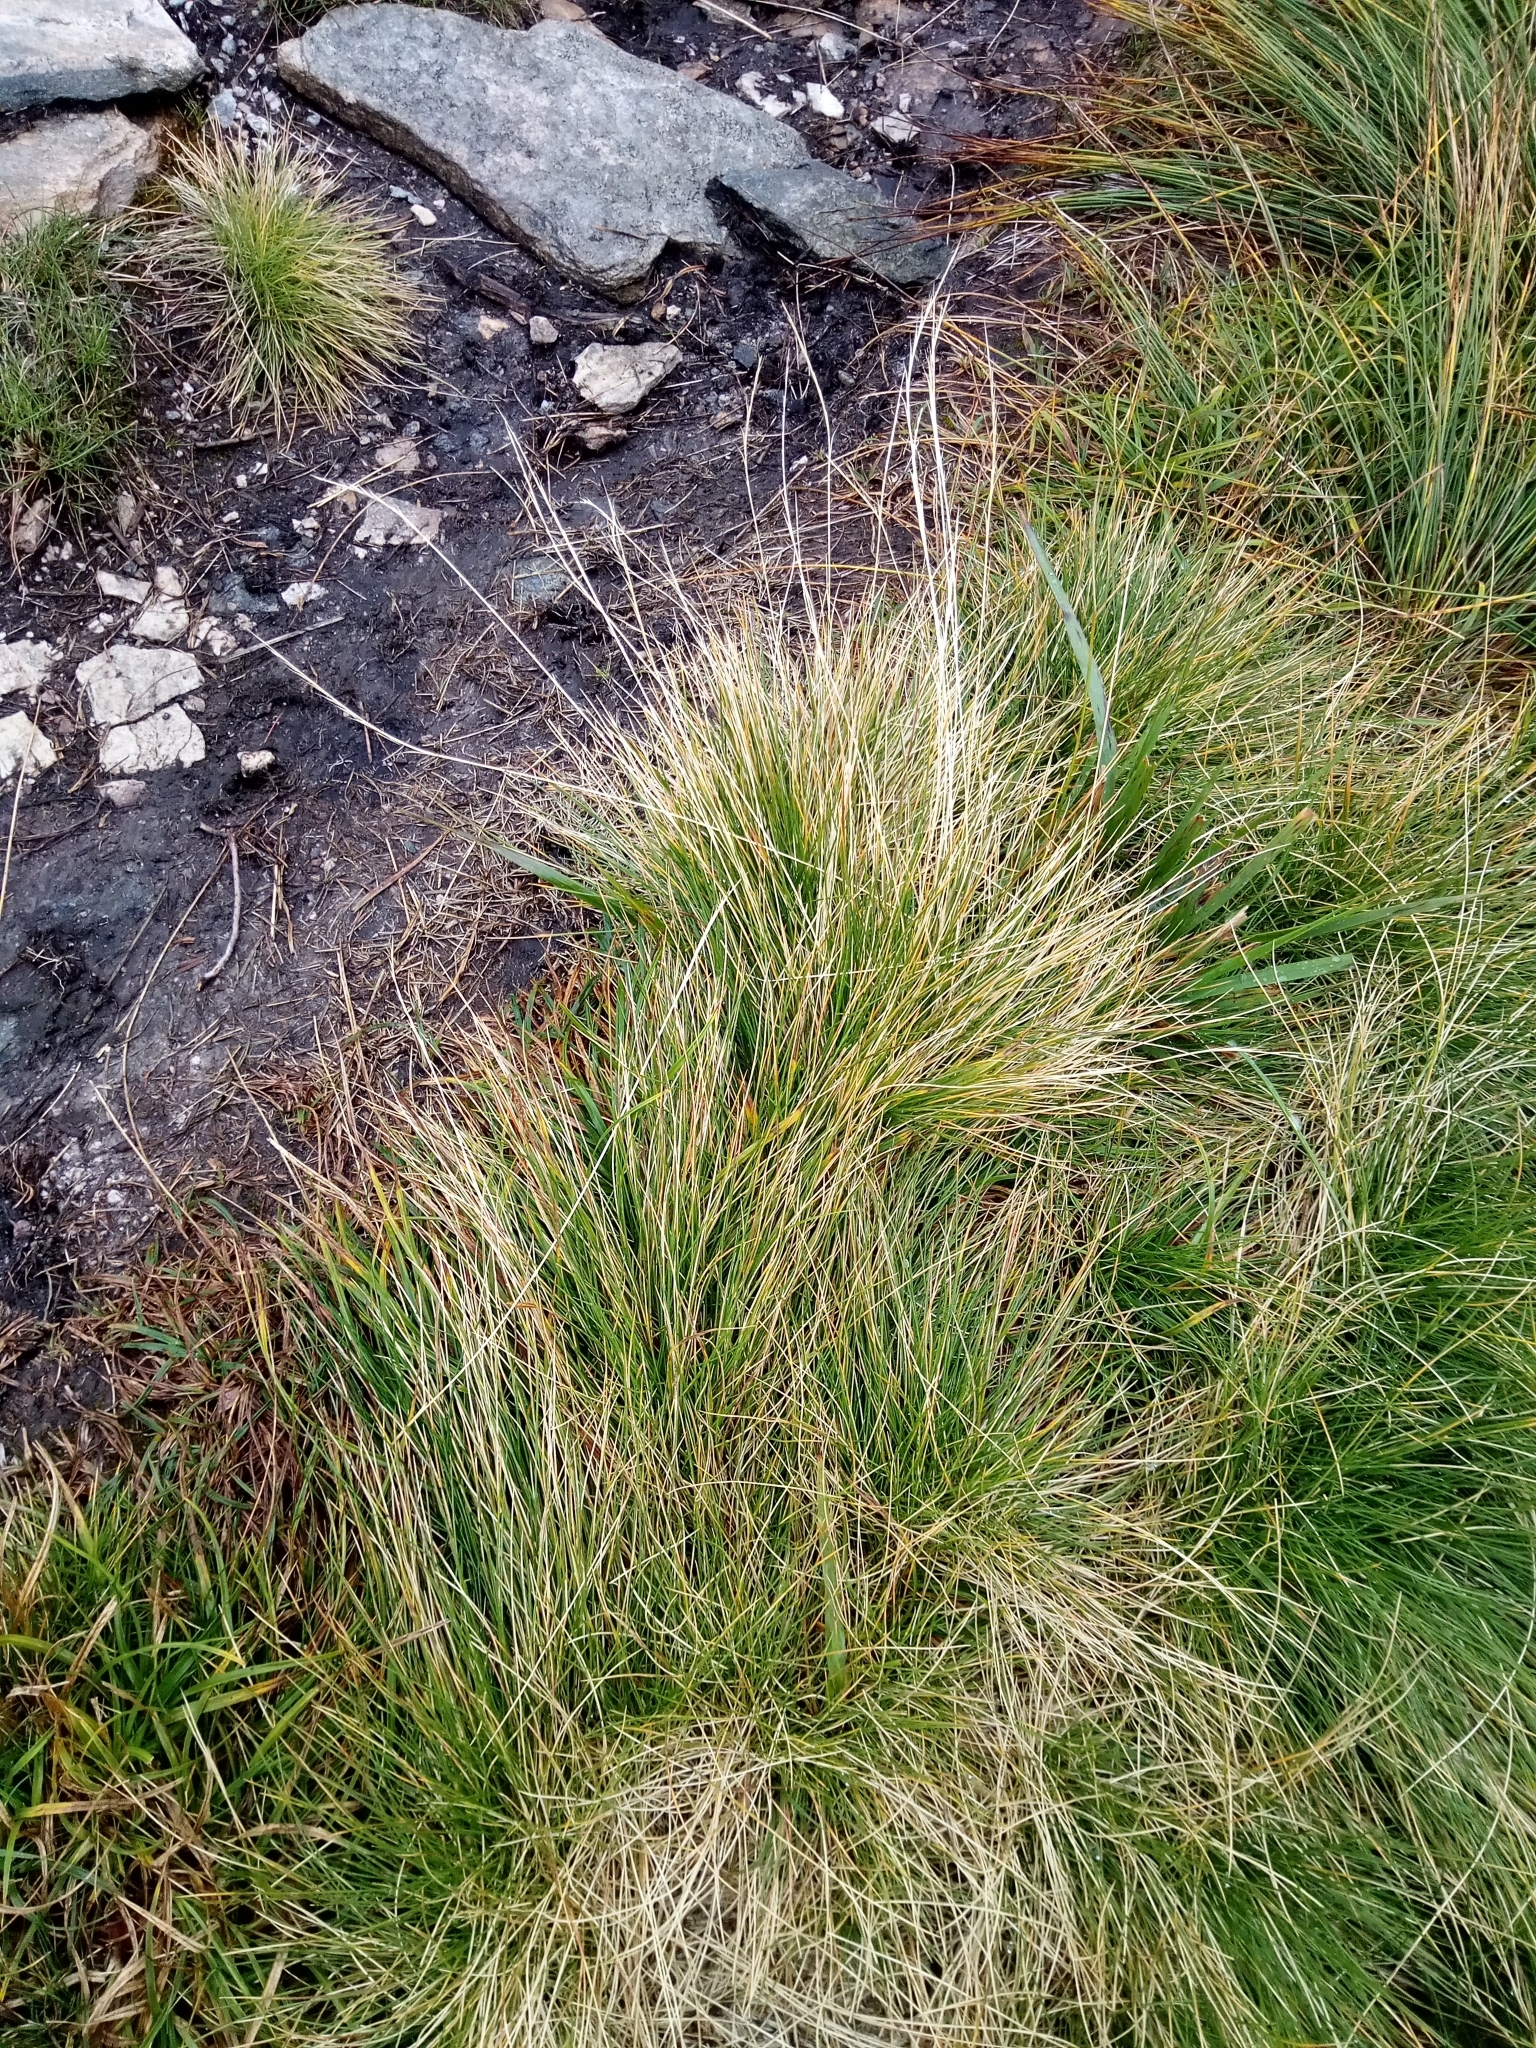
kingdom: Plantae
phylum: Tracheophyta
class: Liliopsida
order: Poales
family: Poaceae
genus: Nardus
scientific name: Nardus stricta
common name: Mat-grass
